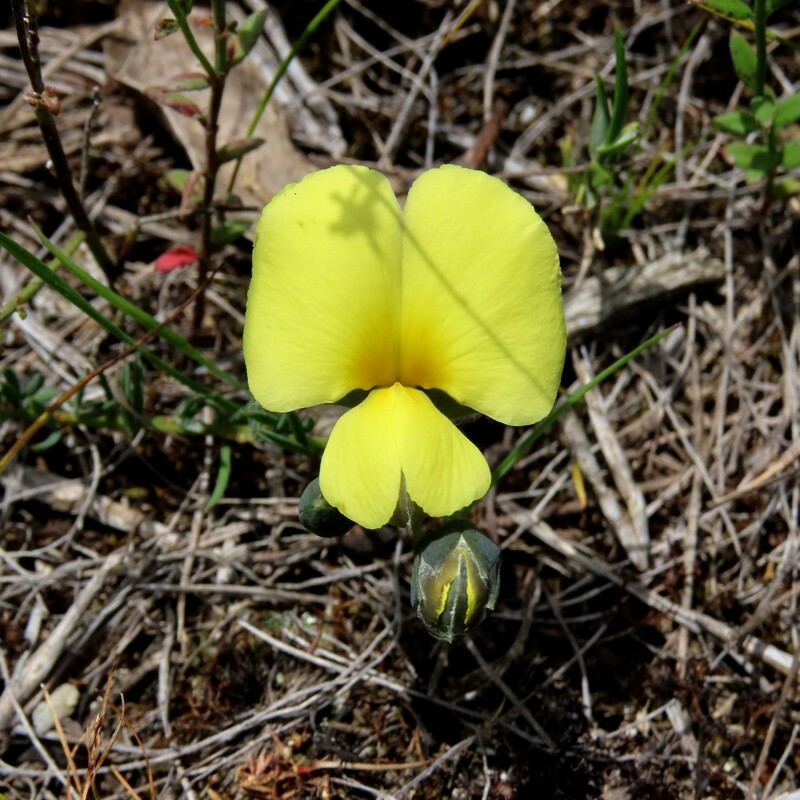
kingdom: Plantae
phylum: Tracheophyta
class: Magnoliopsida
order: Fabales
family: Fabaceae
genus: Gompholobium
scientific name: Gompholobium huegelii
